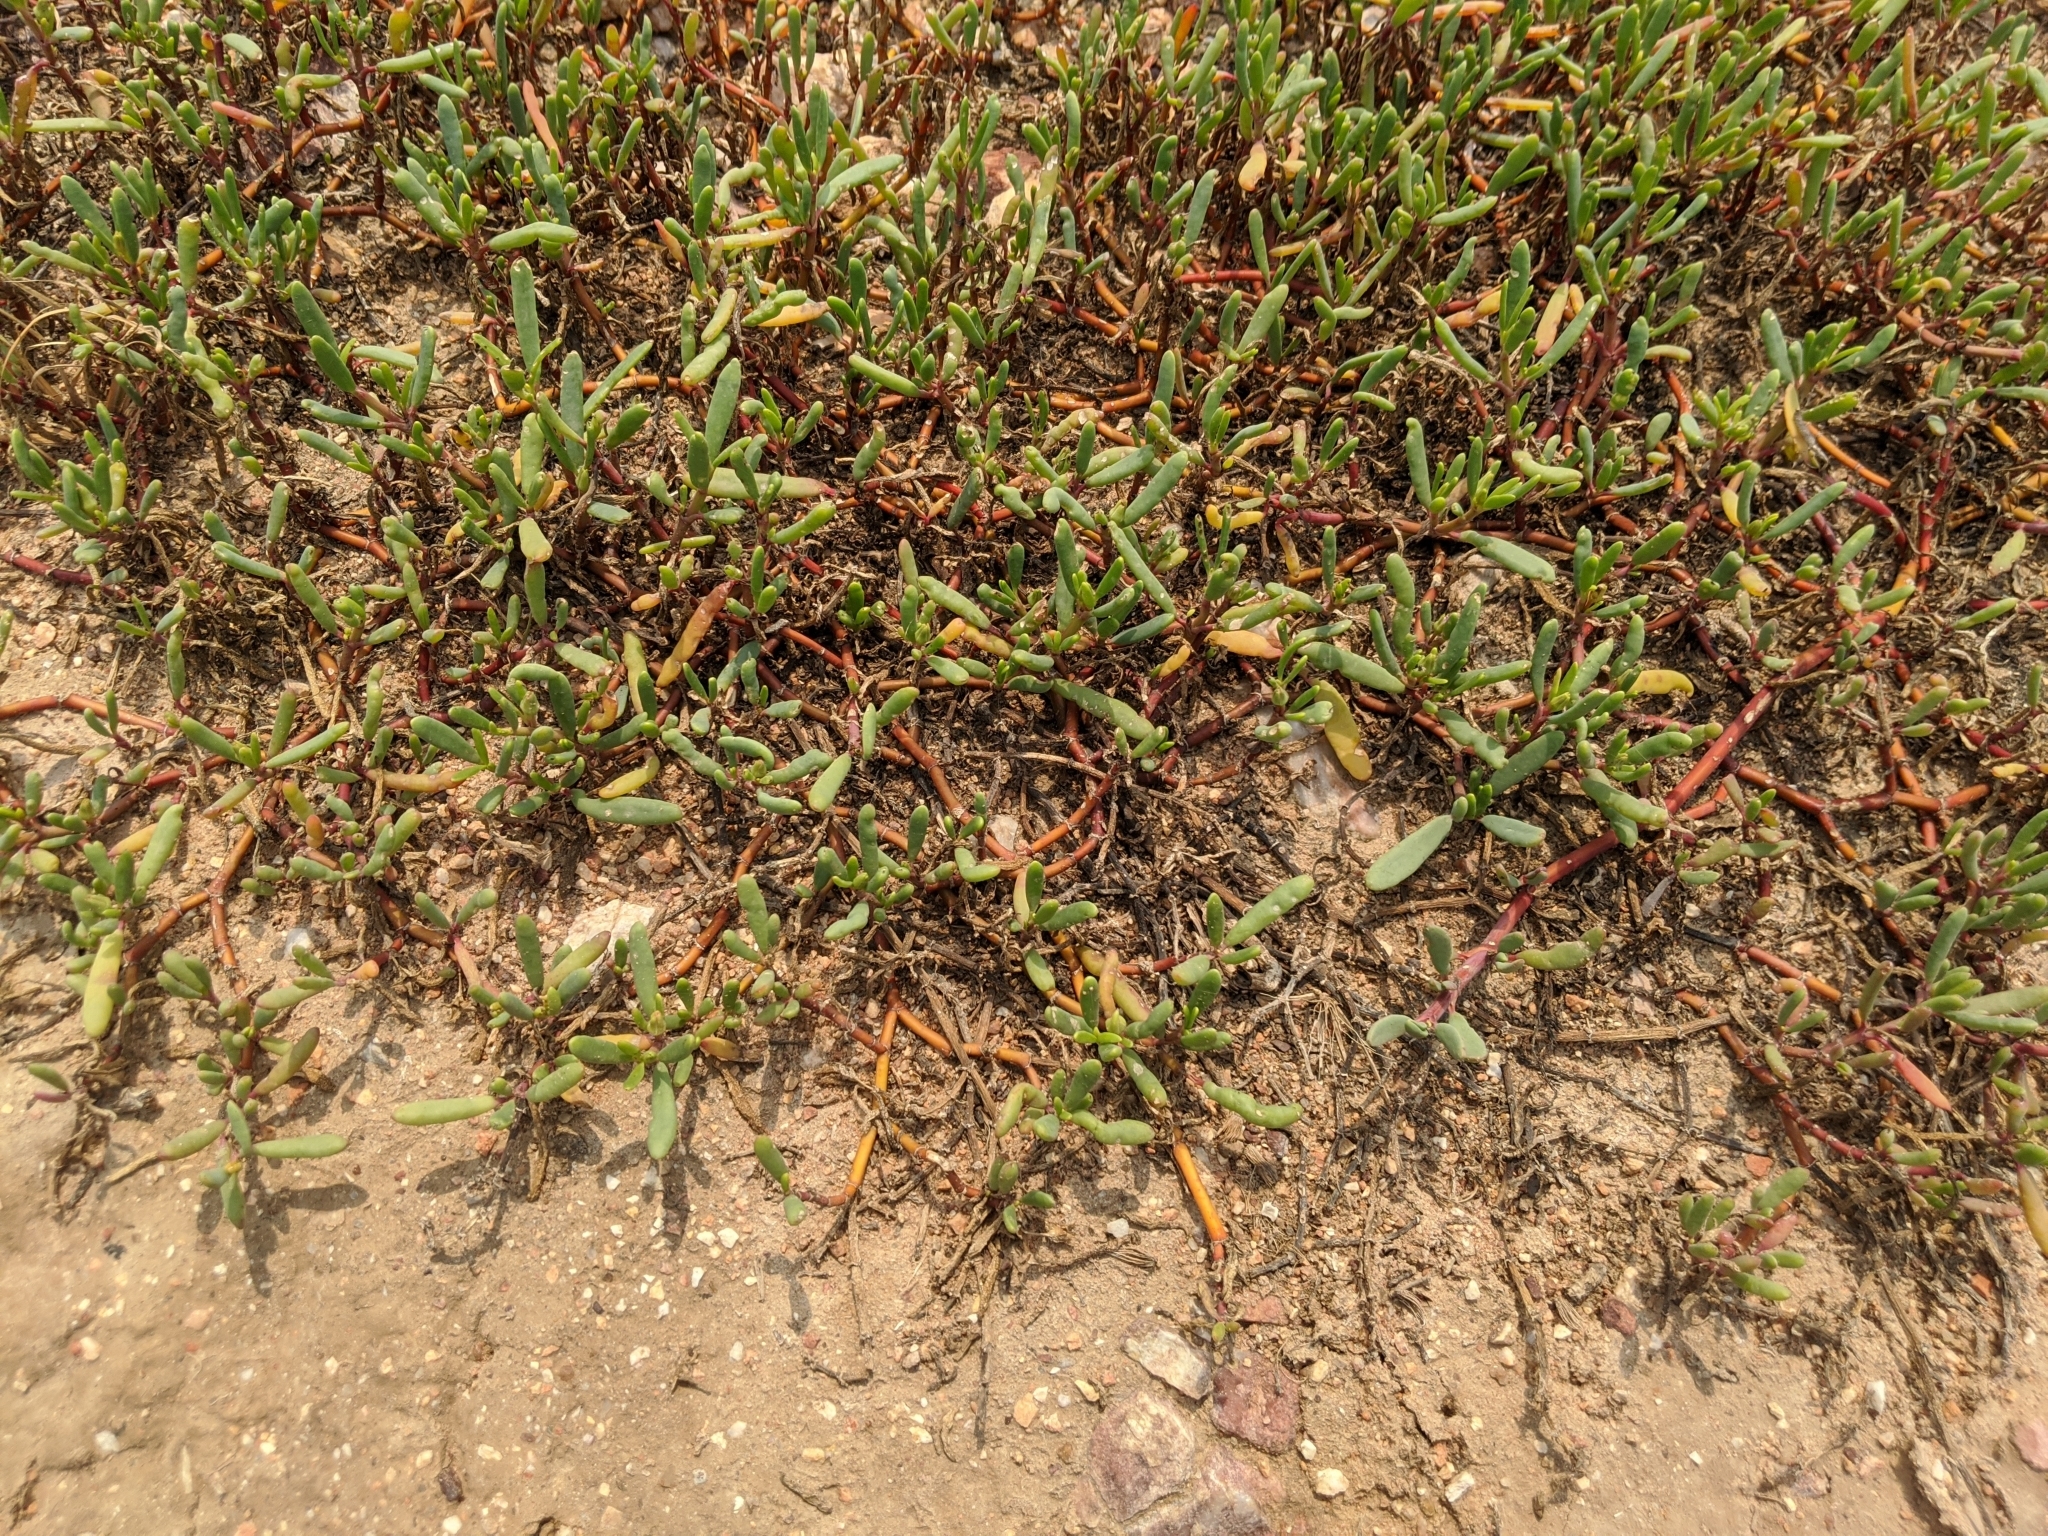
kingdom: Plantae
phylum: Tracheophyta
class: Magnoliopsida
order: Caryophyllales
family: Aizoaceae
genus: Sesuvium
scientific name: Sesuvium portulacastrum
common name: Sea-purslane
